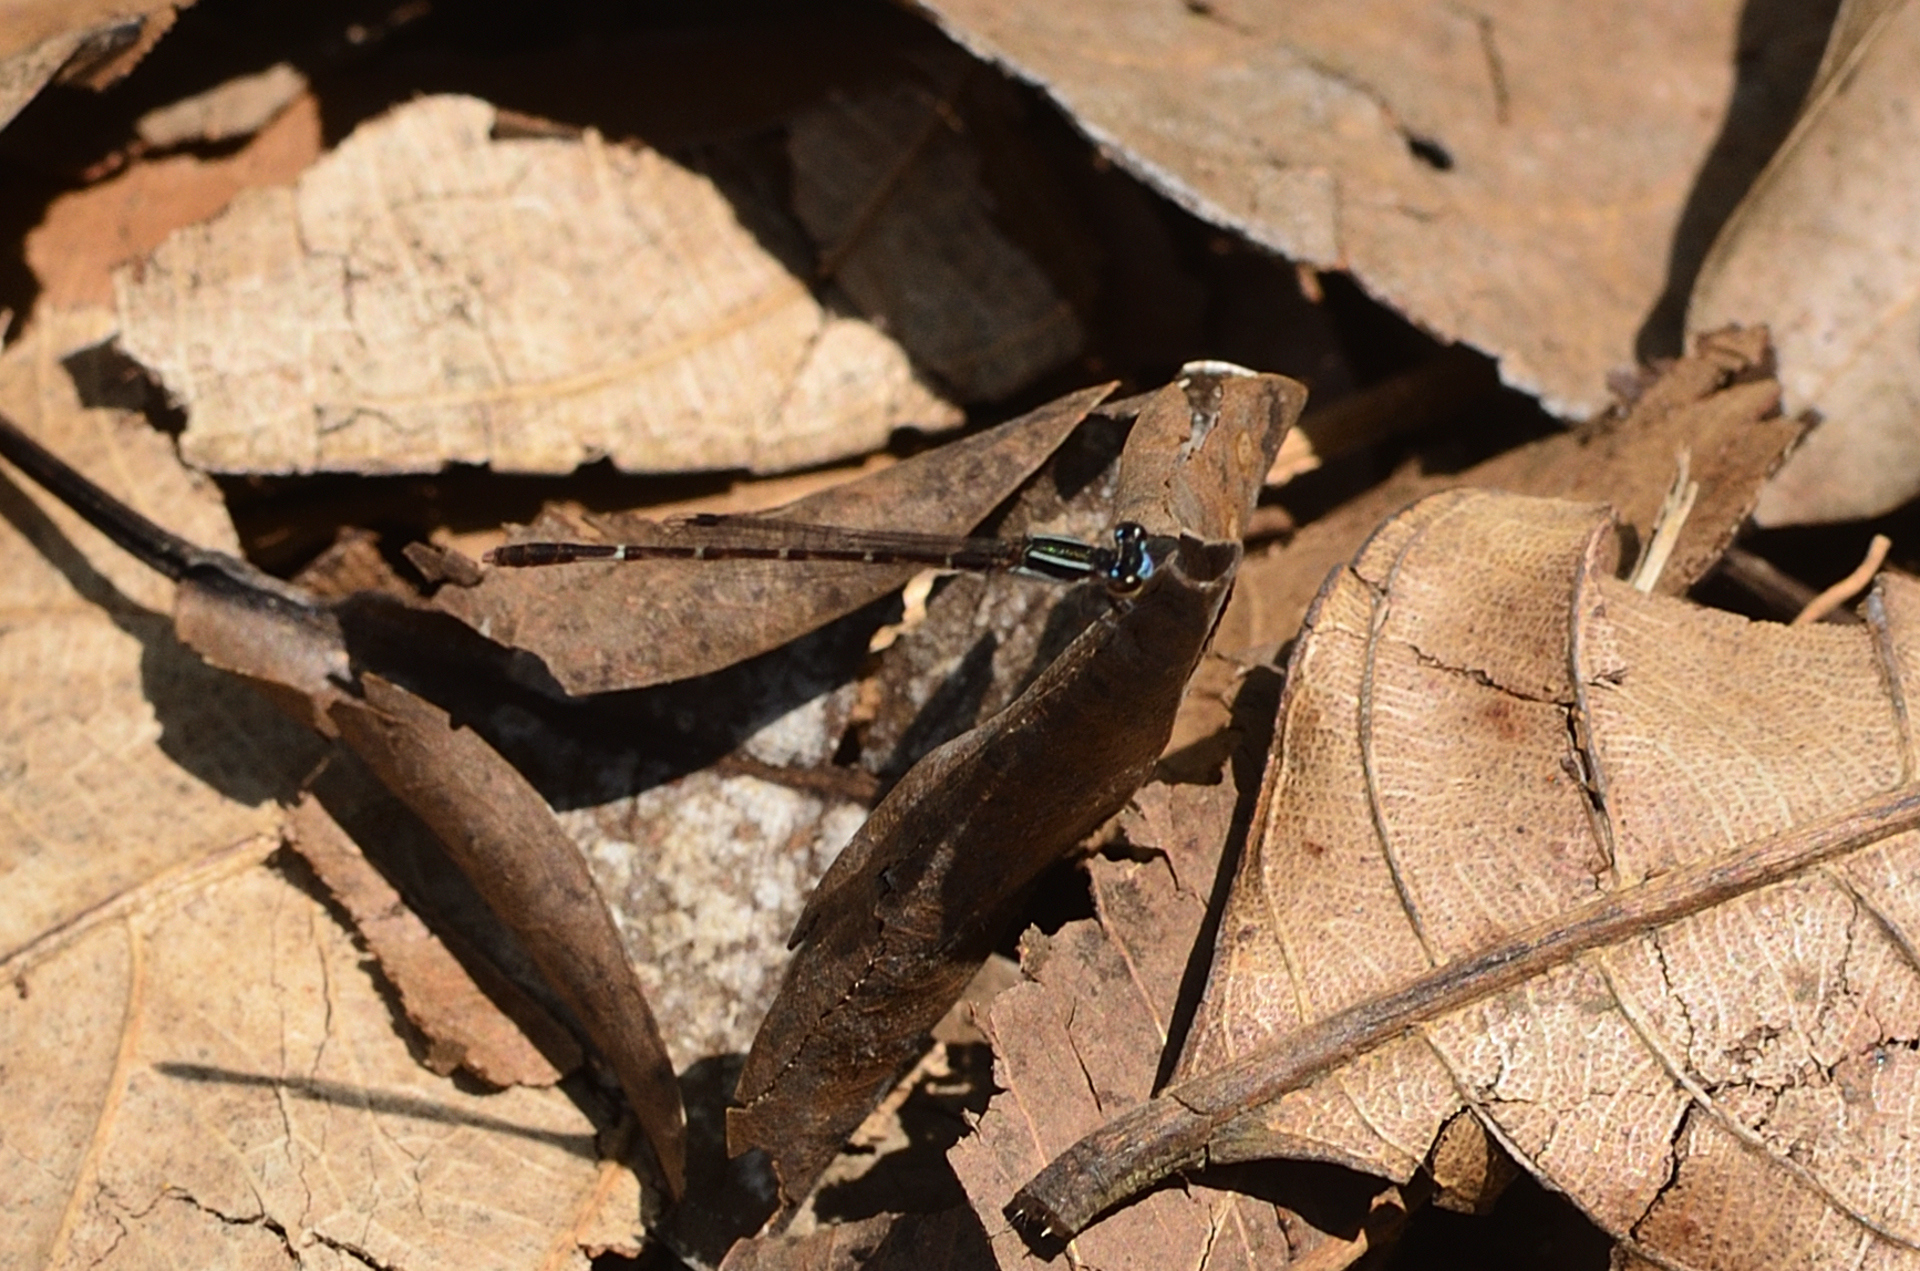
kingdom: Animalia
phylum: Arthropoda
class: Insecta
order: Odonata
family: Coenagrionidae
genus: Mortonagrion
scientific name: Mortonagrion varralli
